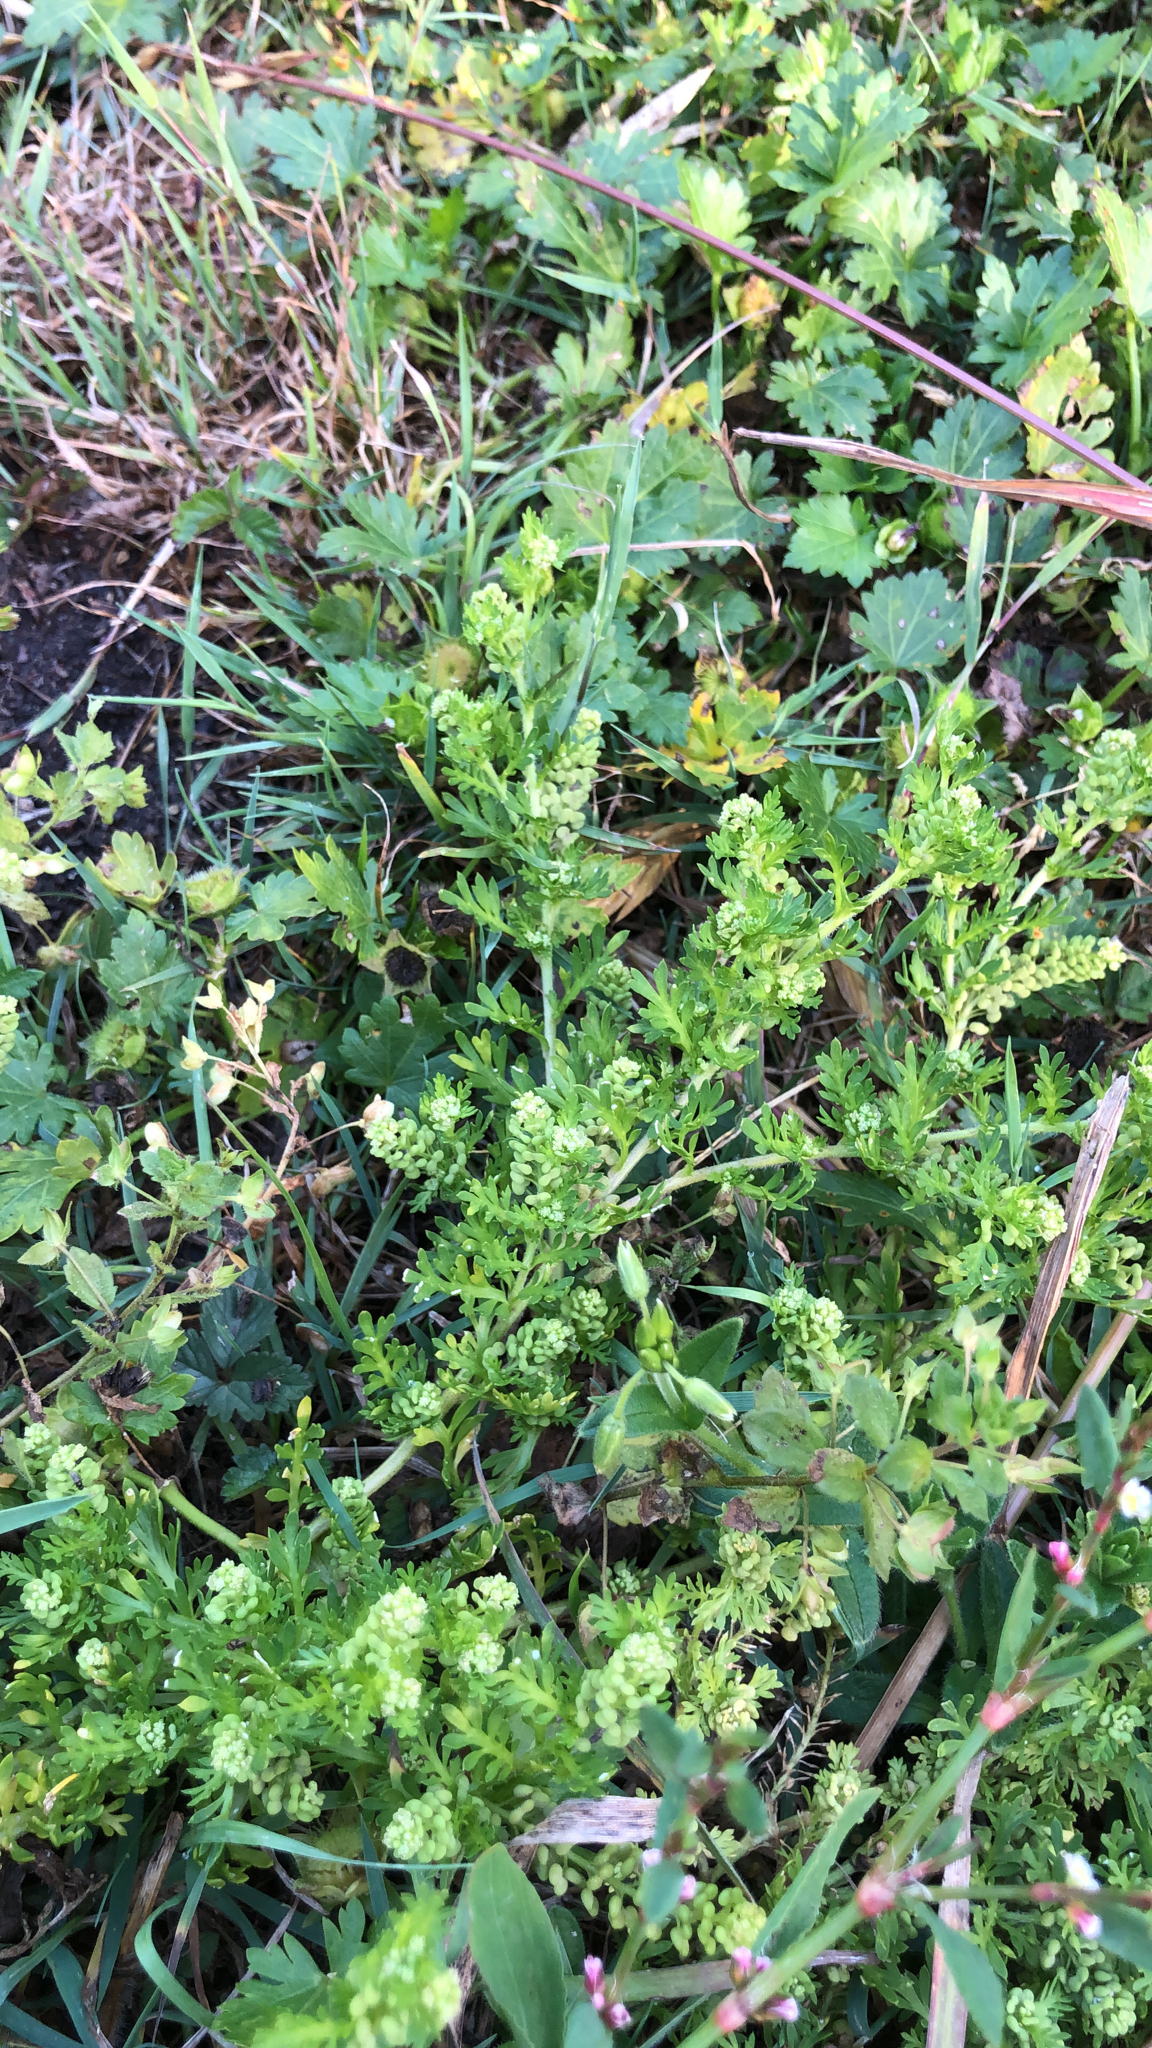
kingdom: Plantae
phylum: Tracheophyta
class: Magnoliopsida
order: Brassicales
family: Brassicaceae
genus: Lepidium
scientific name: Lepidium didymum
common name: Lesser swinecress
